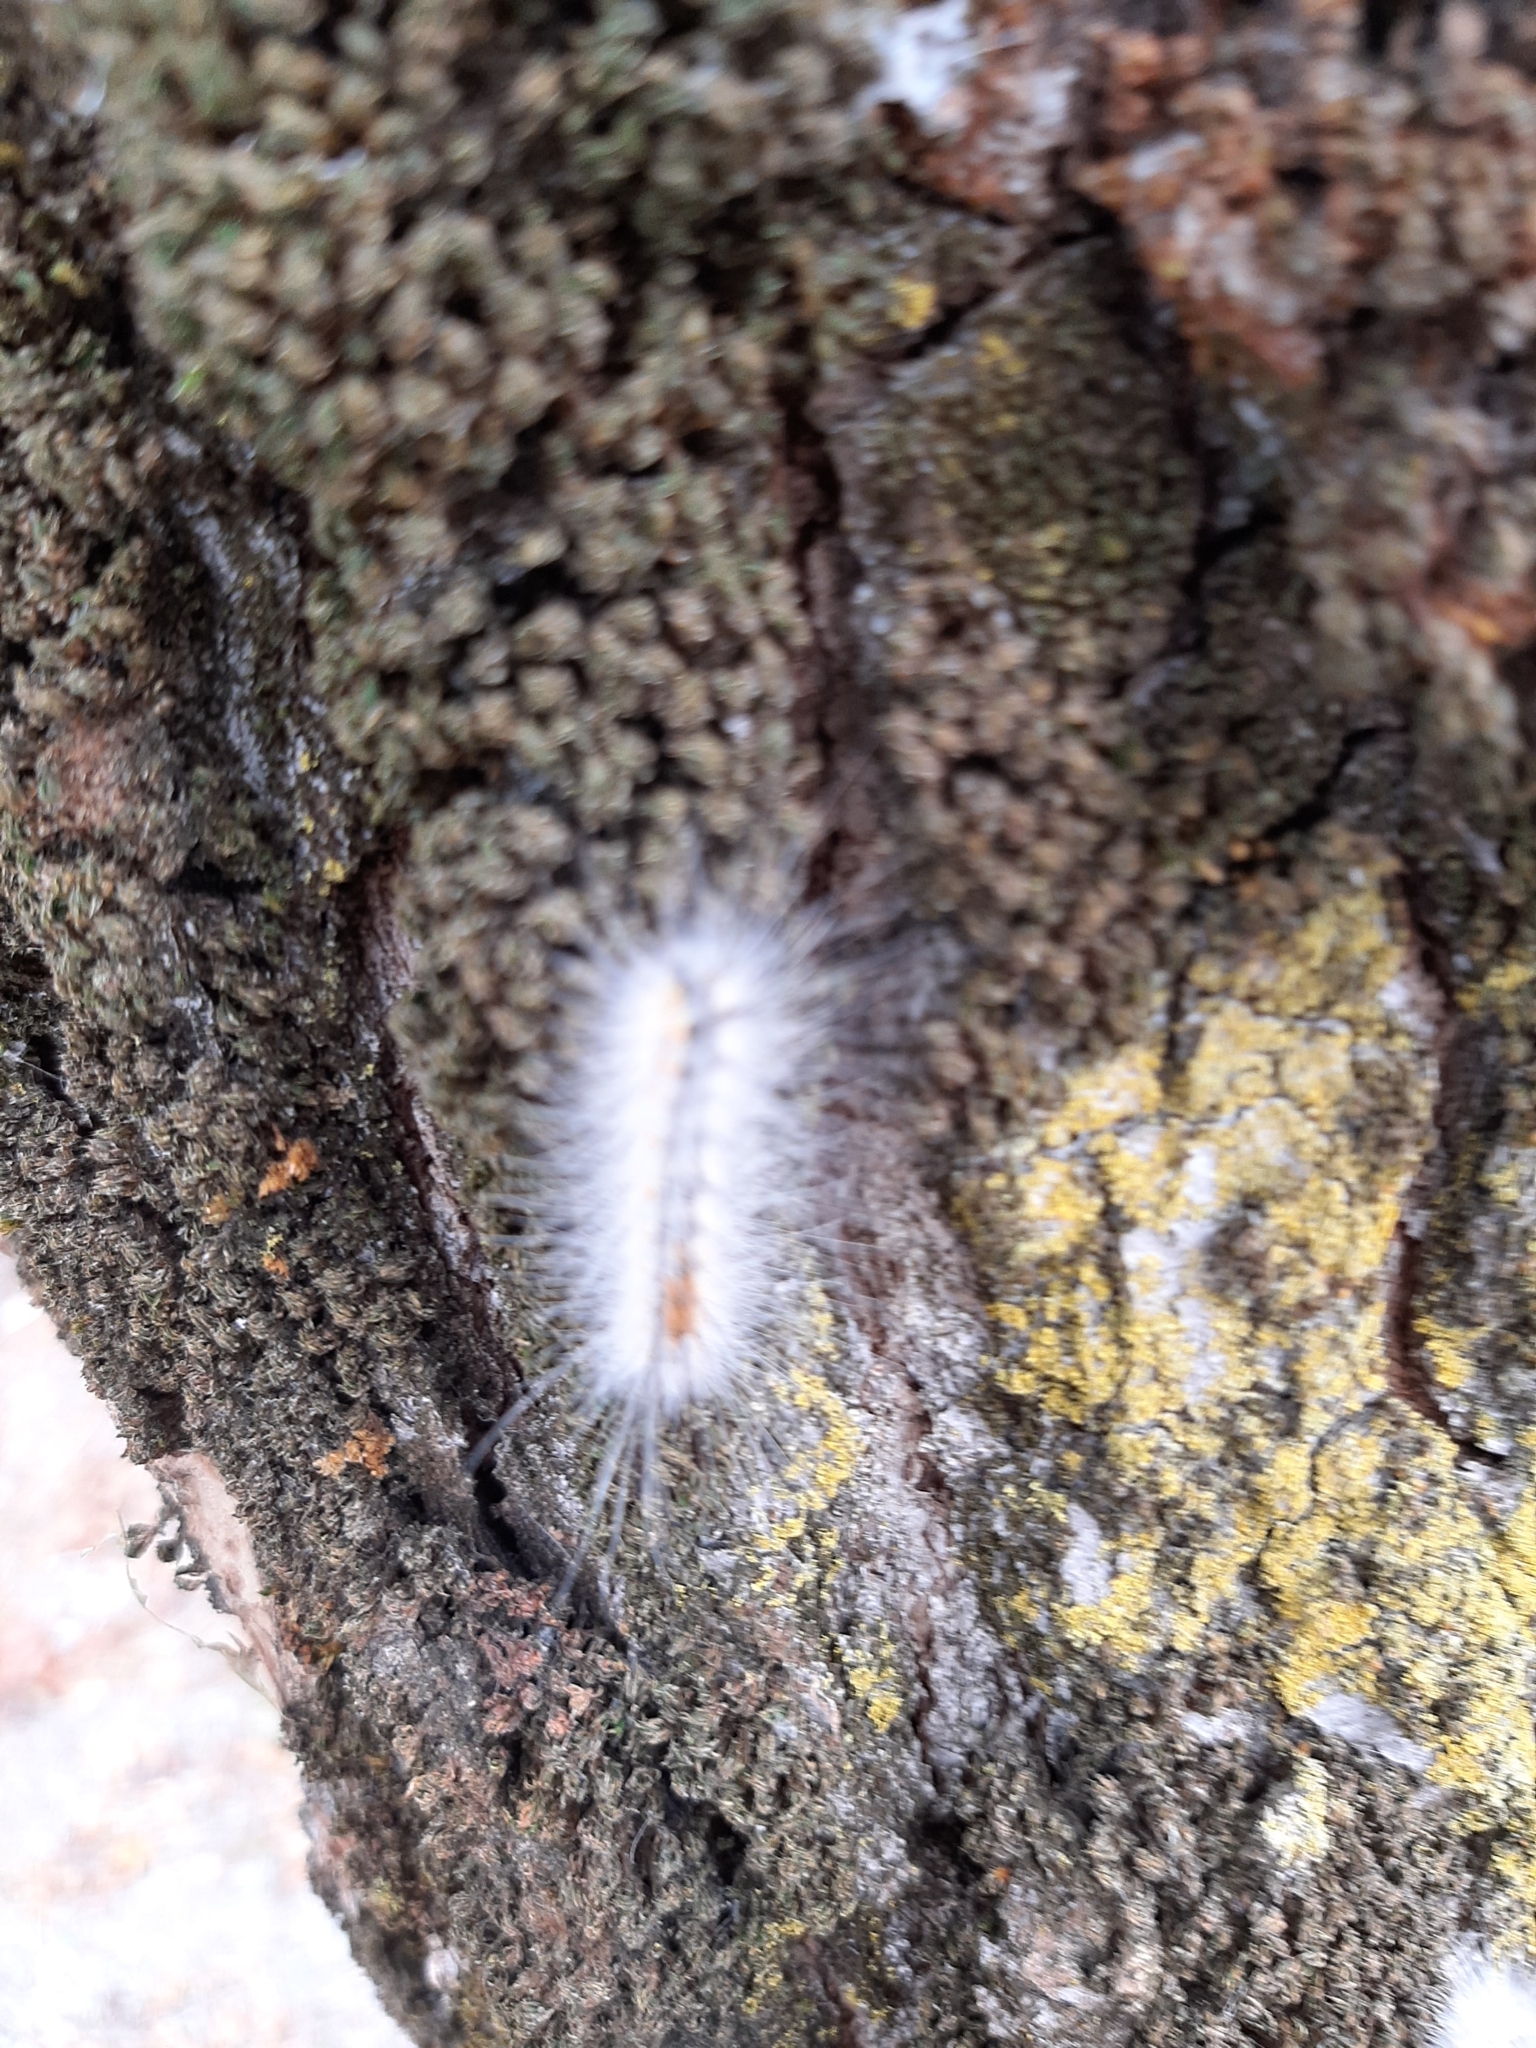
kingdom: Animalia
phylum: Arthropoda
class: Insecta
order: Lepidoptera
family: Erebidae
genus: Hyphantria
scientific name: Hyphantria cunea
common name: American white moth
